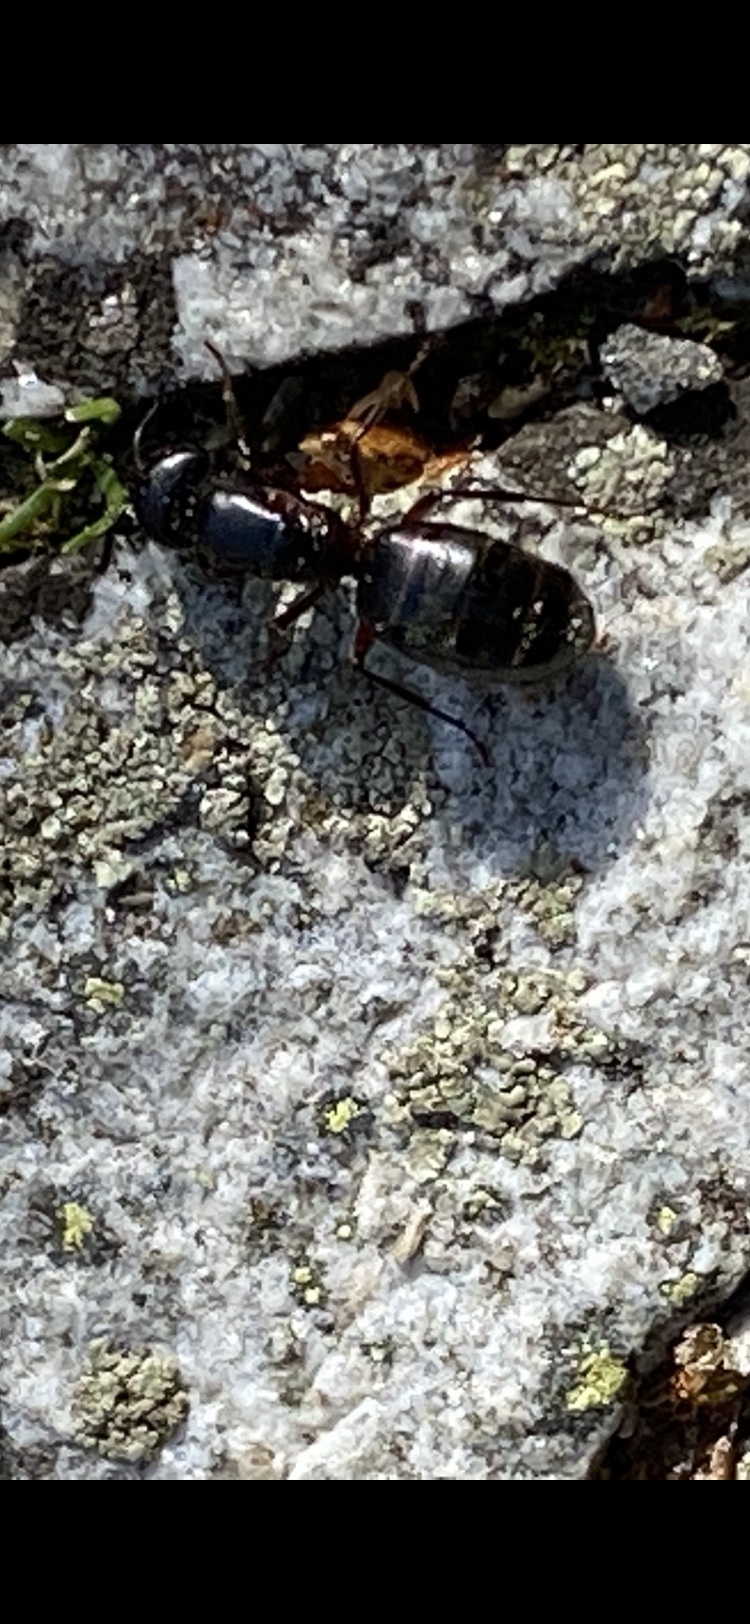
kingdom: Animalia
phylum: Arthropoda
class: Insecta
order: Hymenoptera
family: Formicidae
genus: Camponotus
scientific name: Camponotus herculeanus
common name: Hercules ant
